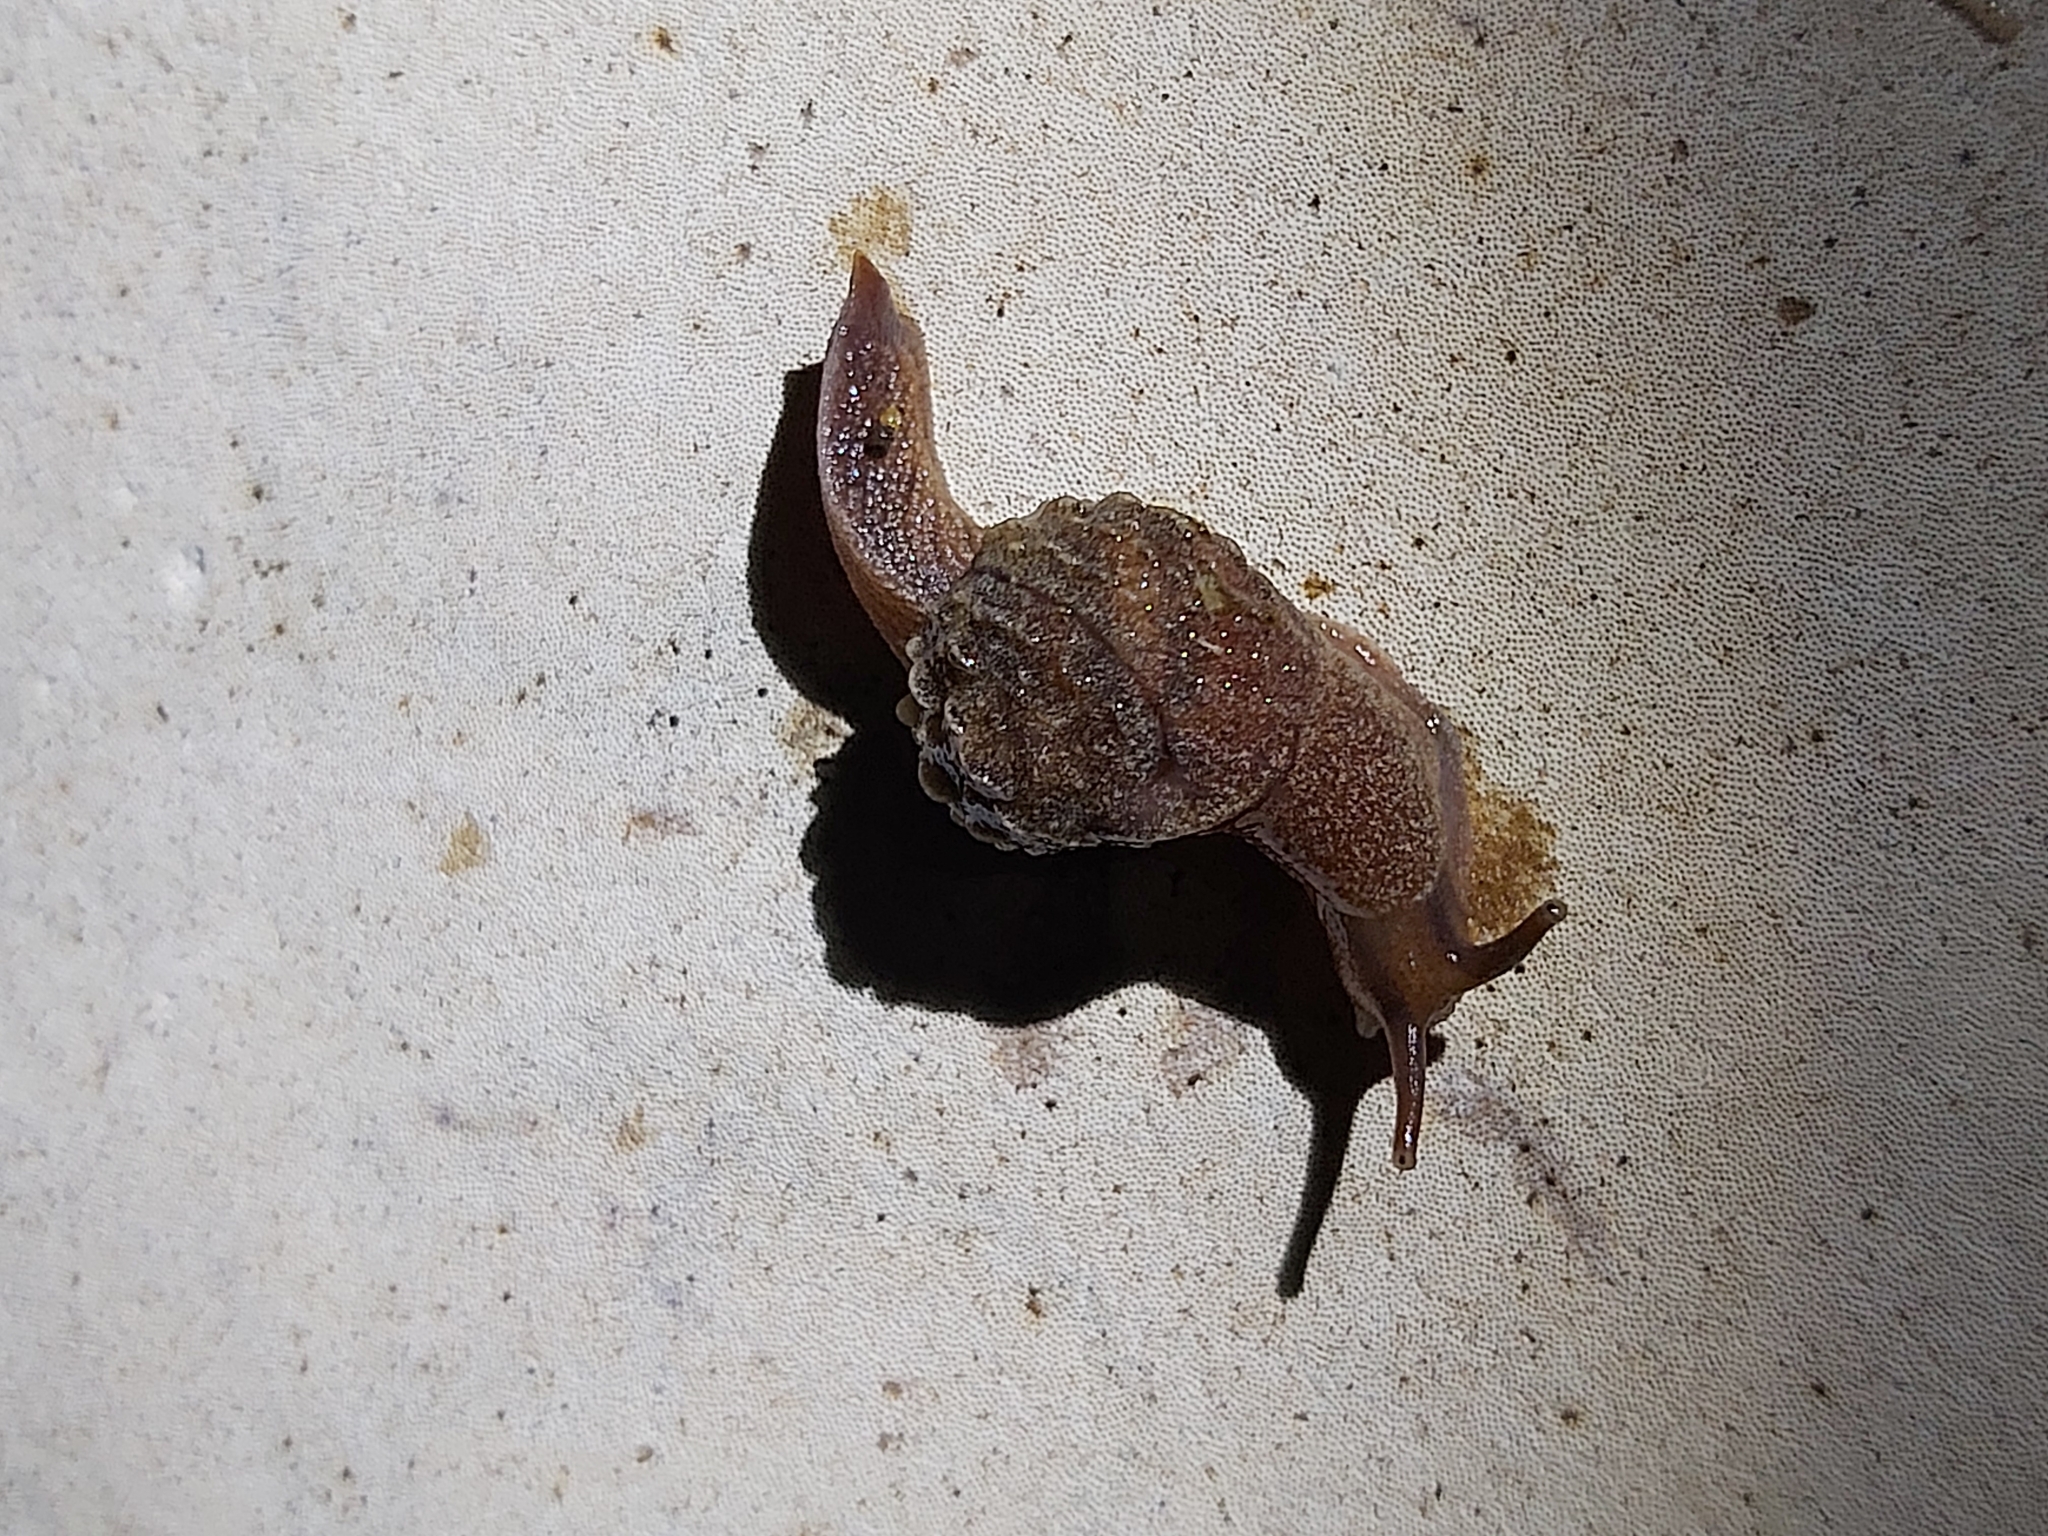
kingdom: Animalia
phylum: Mollusca
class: Gastropoda
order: Stylommatophora
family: Helicarionidae
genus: Fastosarion
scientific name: Fastosarion brazieri
